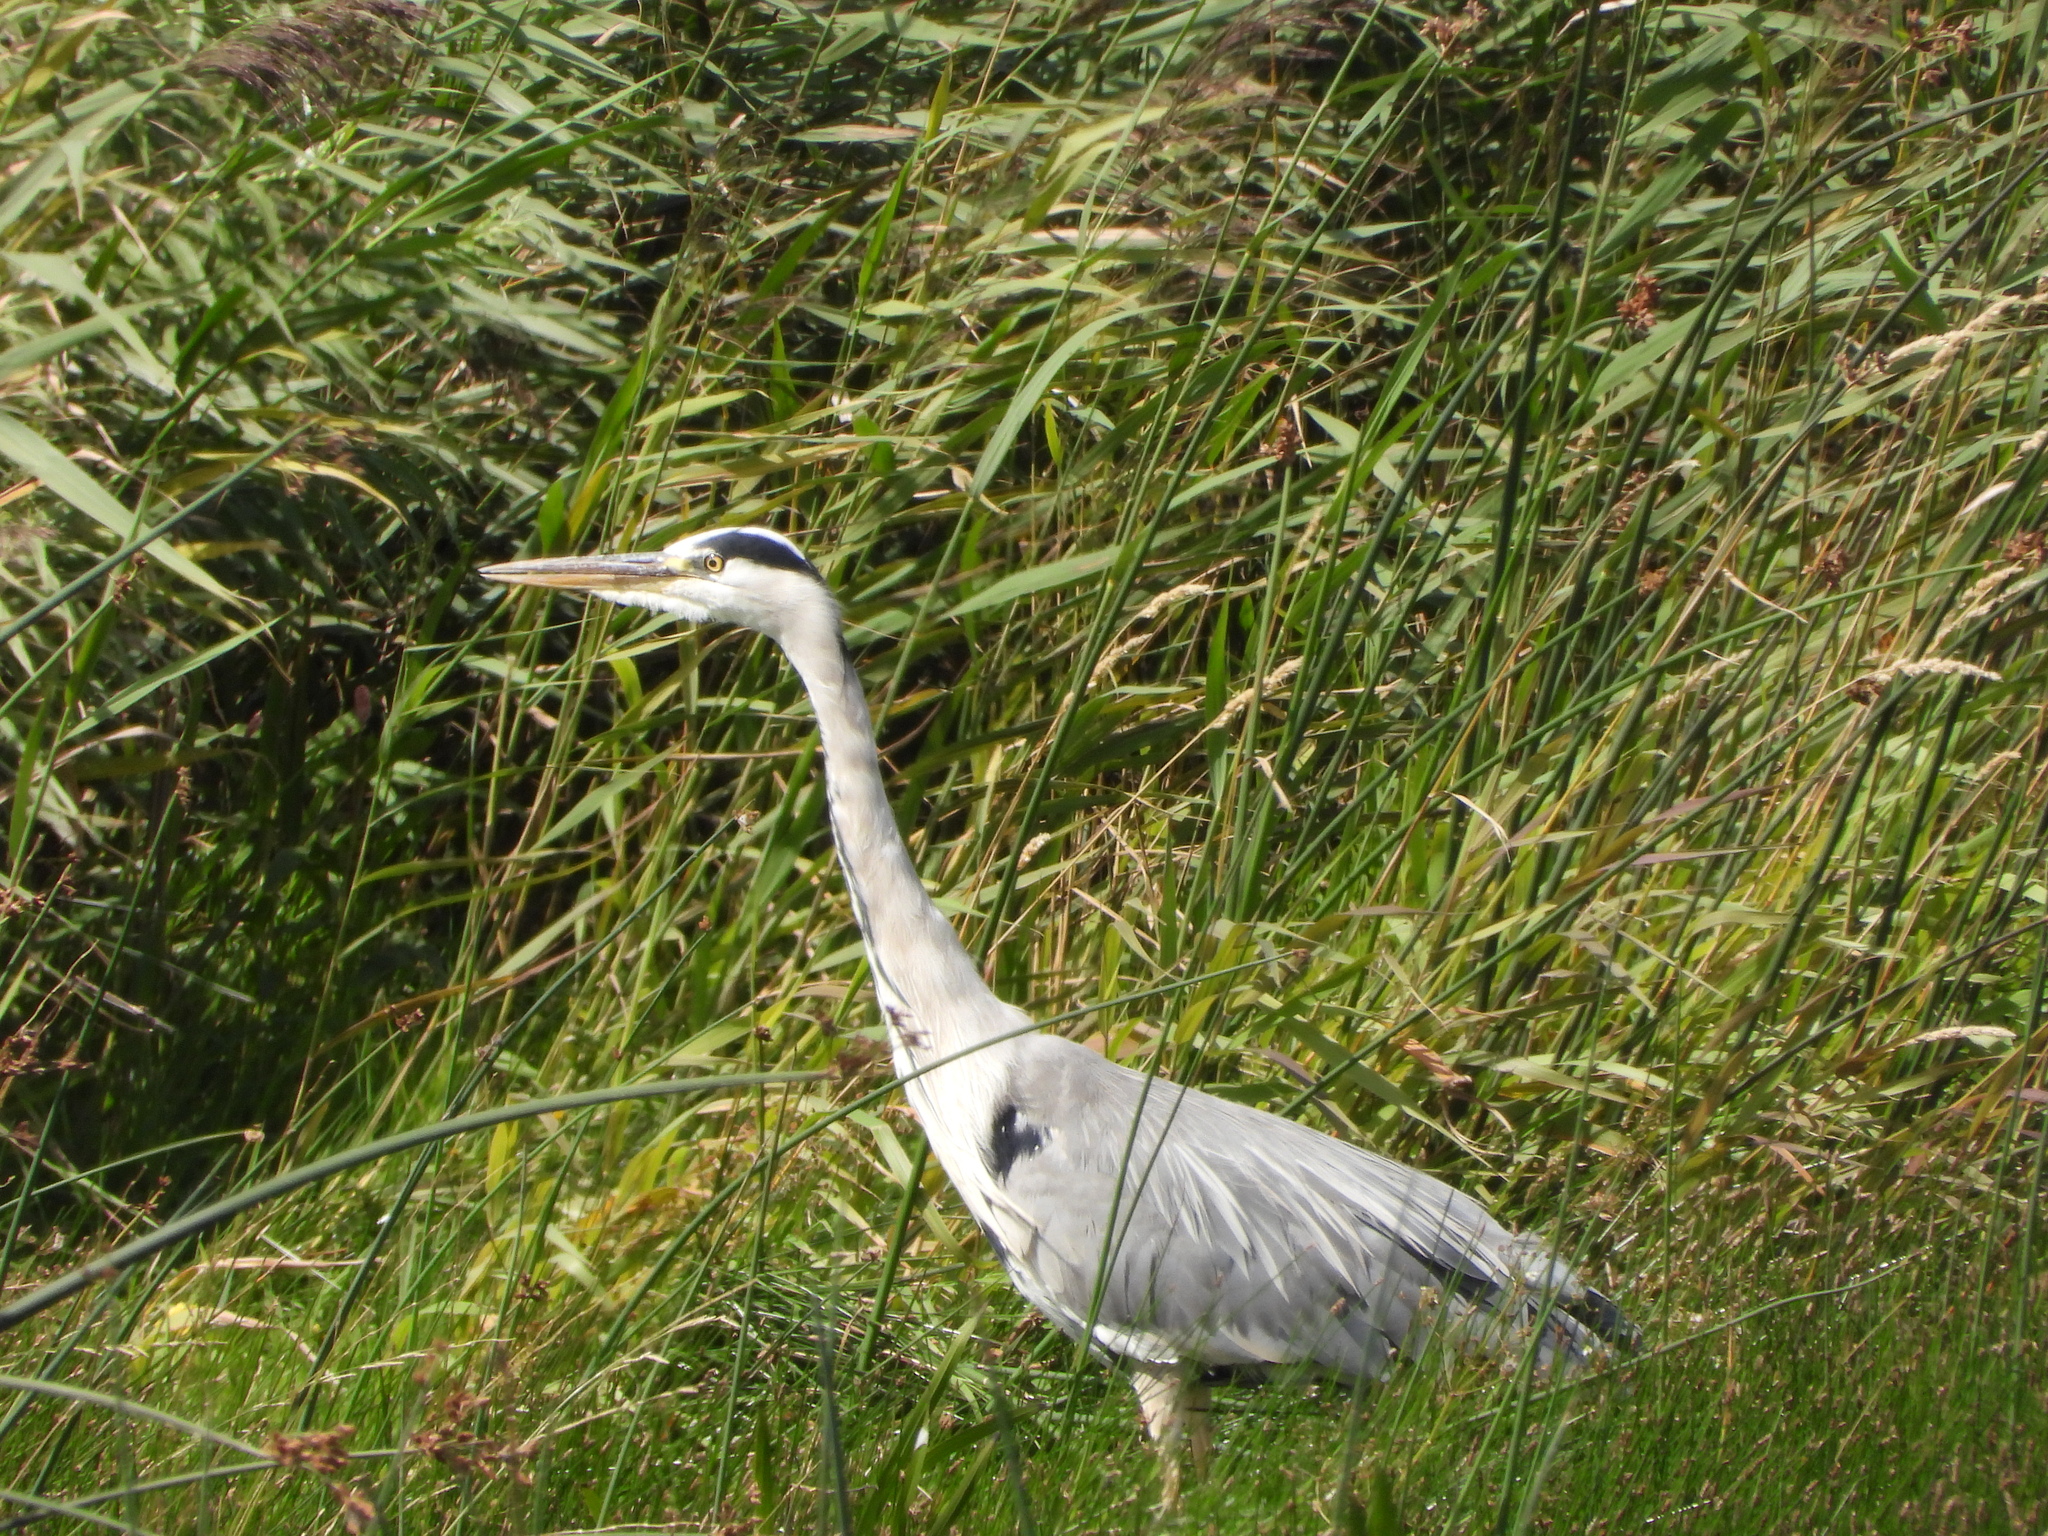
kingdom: Animalia
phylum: Chordata
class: Aves
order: Pelecaniformes
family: Ardeidae
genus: Ardea
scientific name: Ardea cinerea
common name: Grey heron
